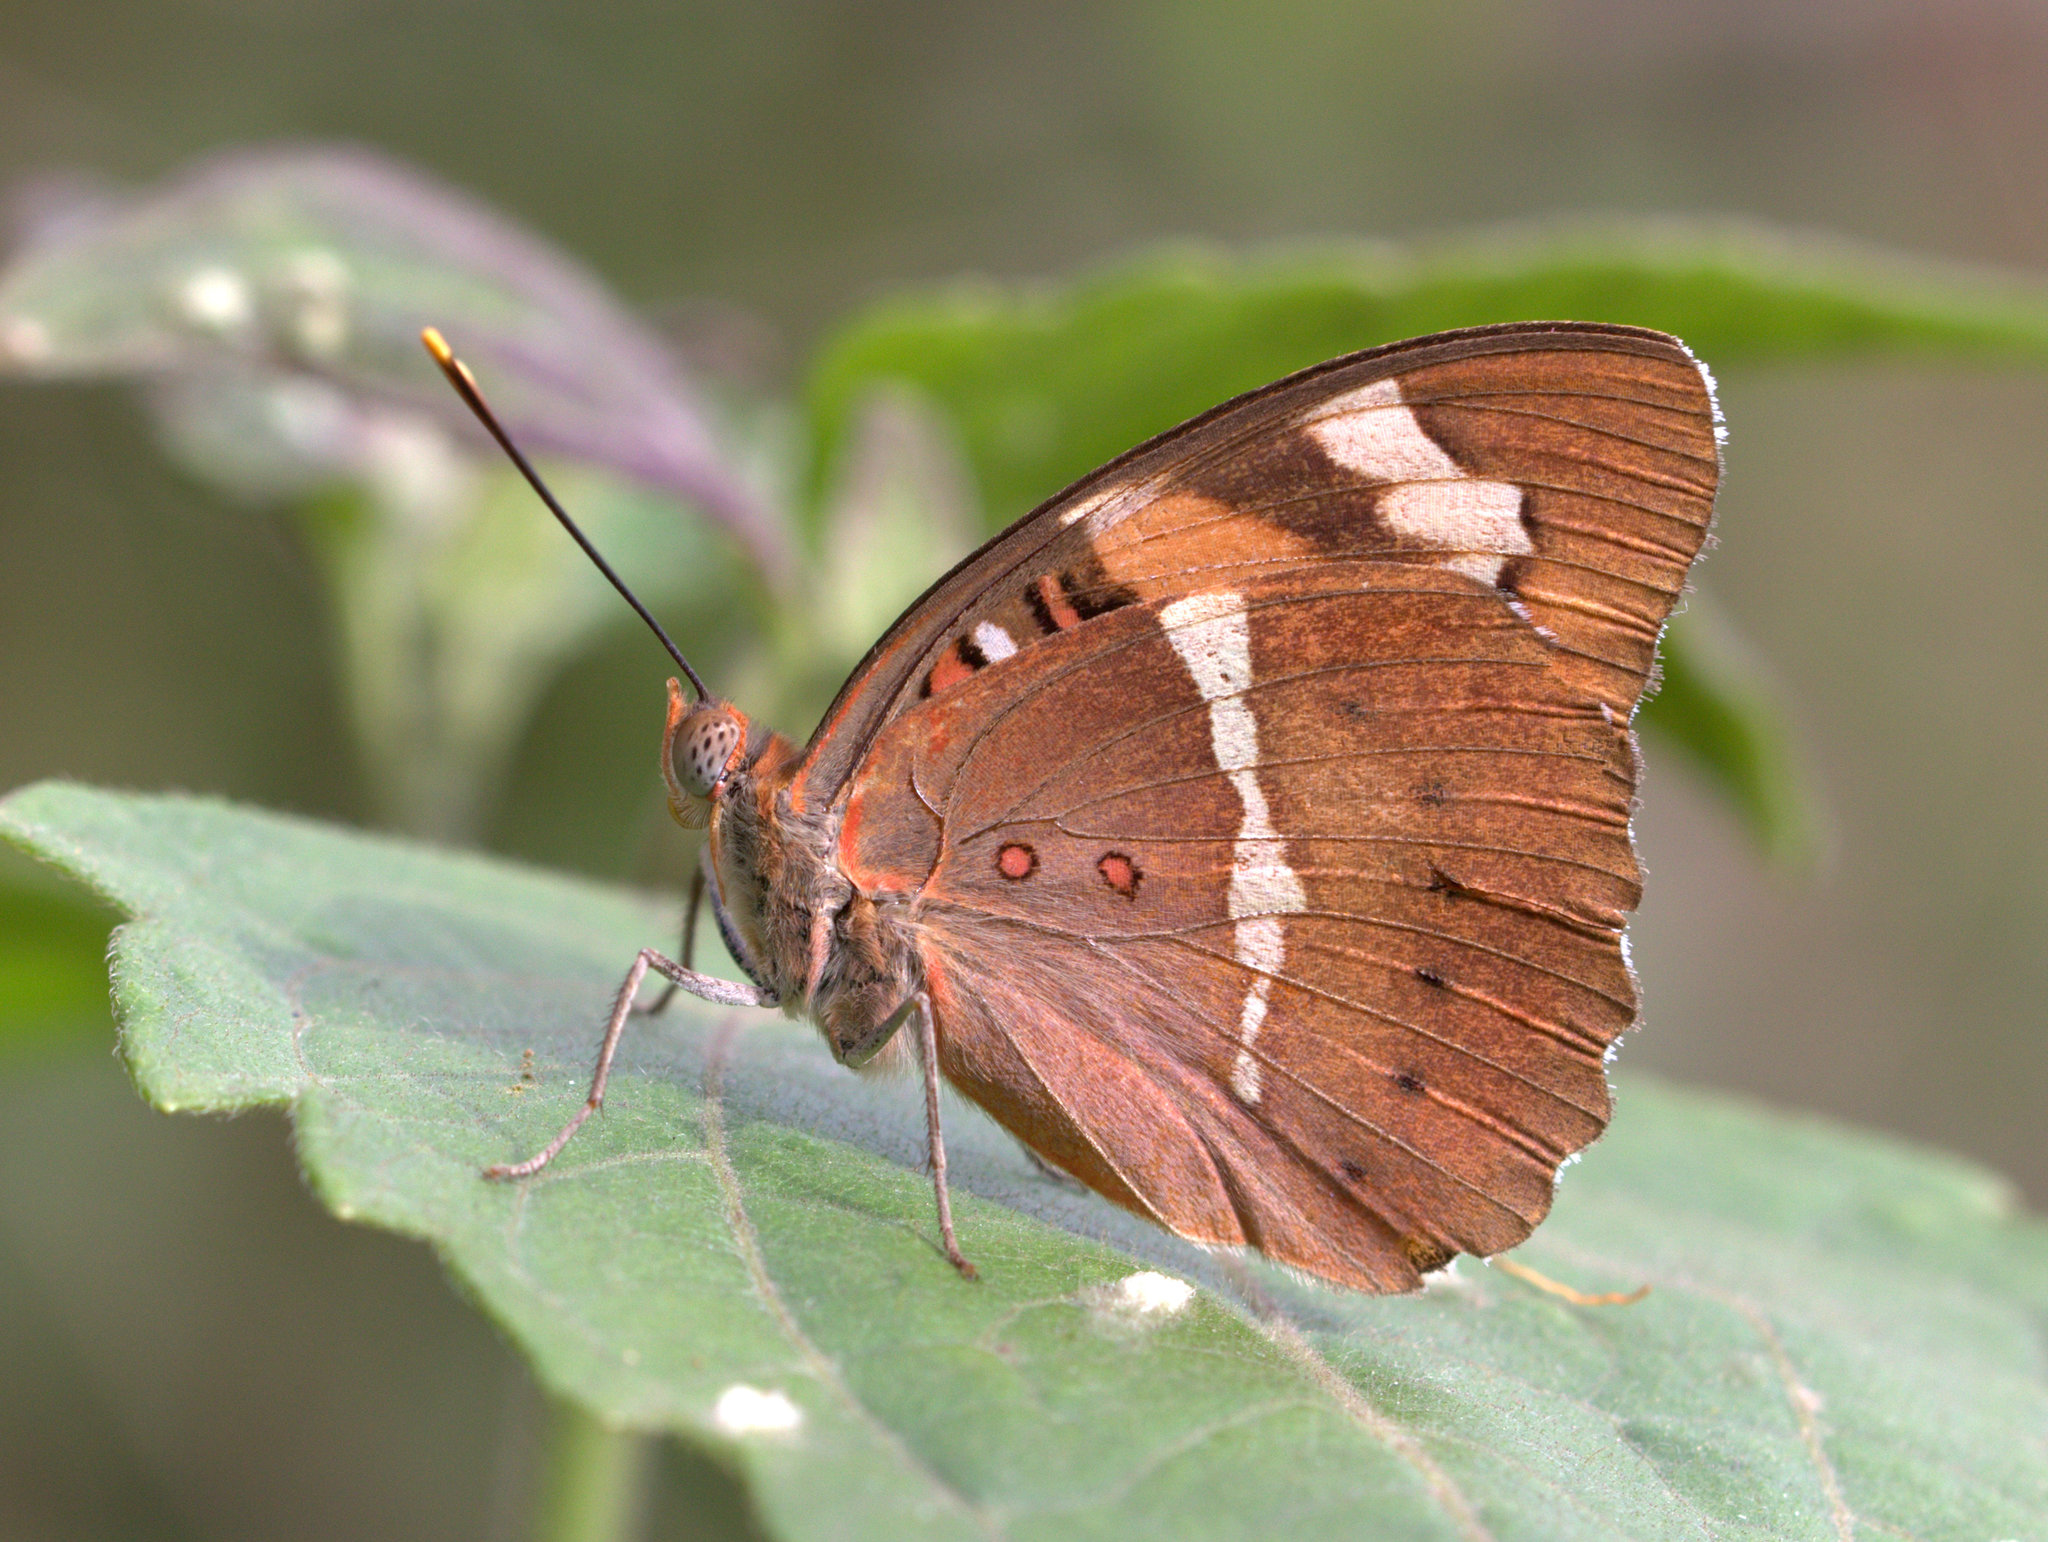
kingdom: Animalia
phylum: Arthropoda
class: Insecta
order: Lepidoptera
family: Nymphalidae
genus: Euthalia
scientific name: Euthalia nais
